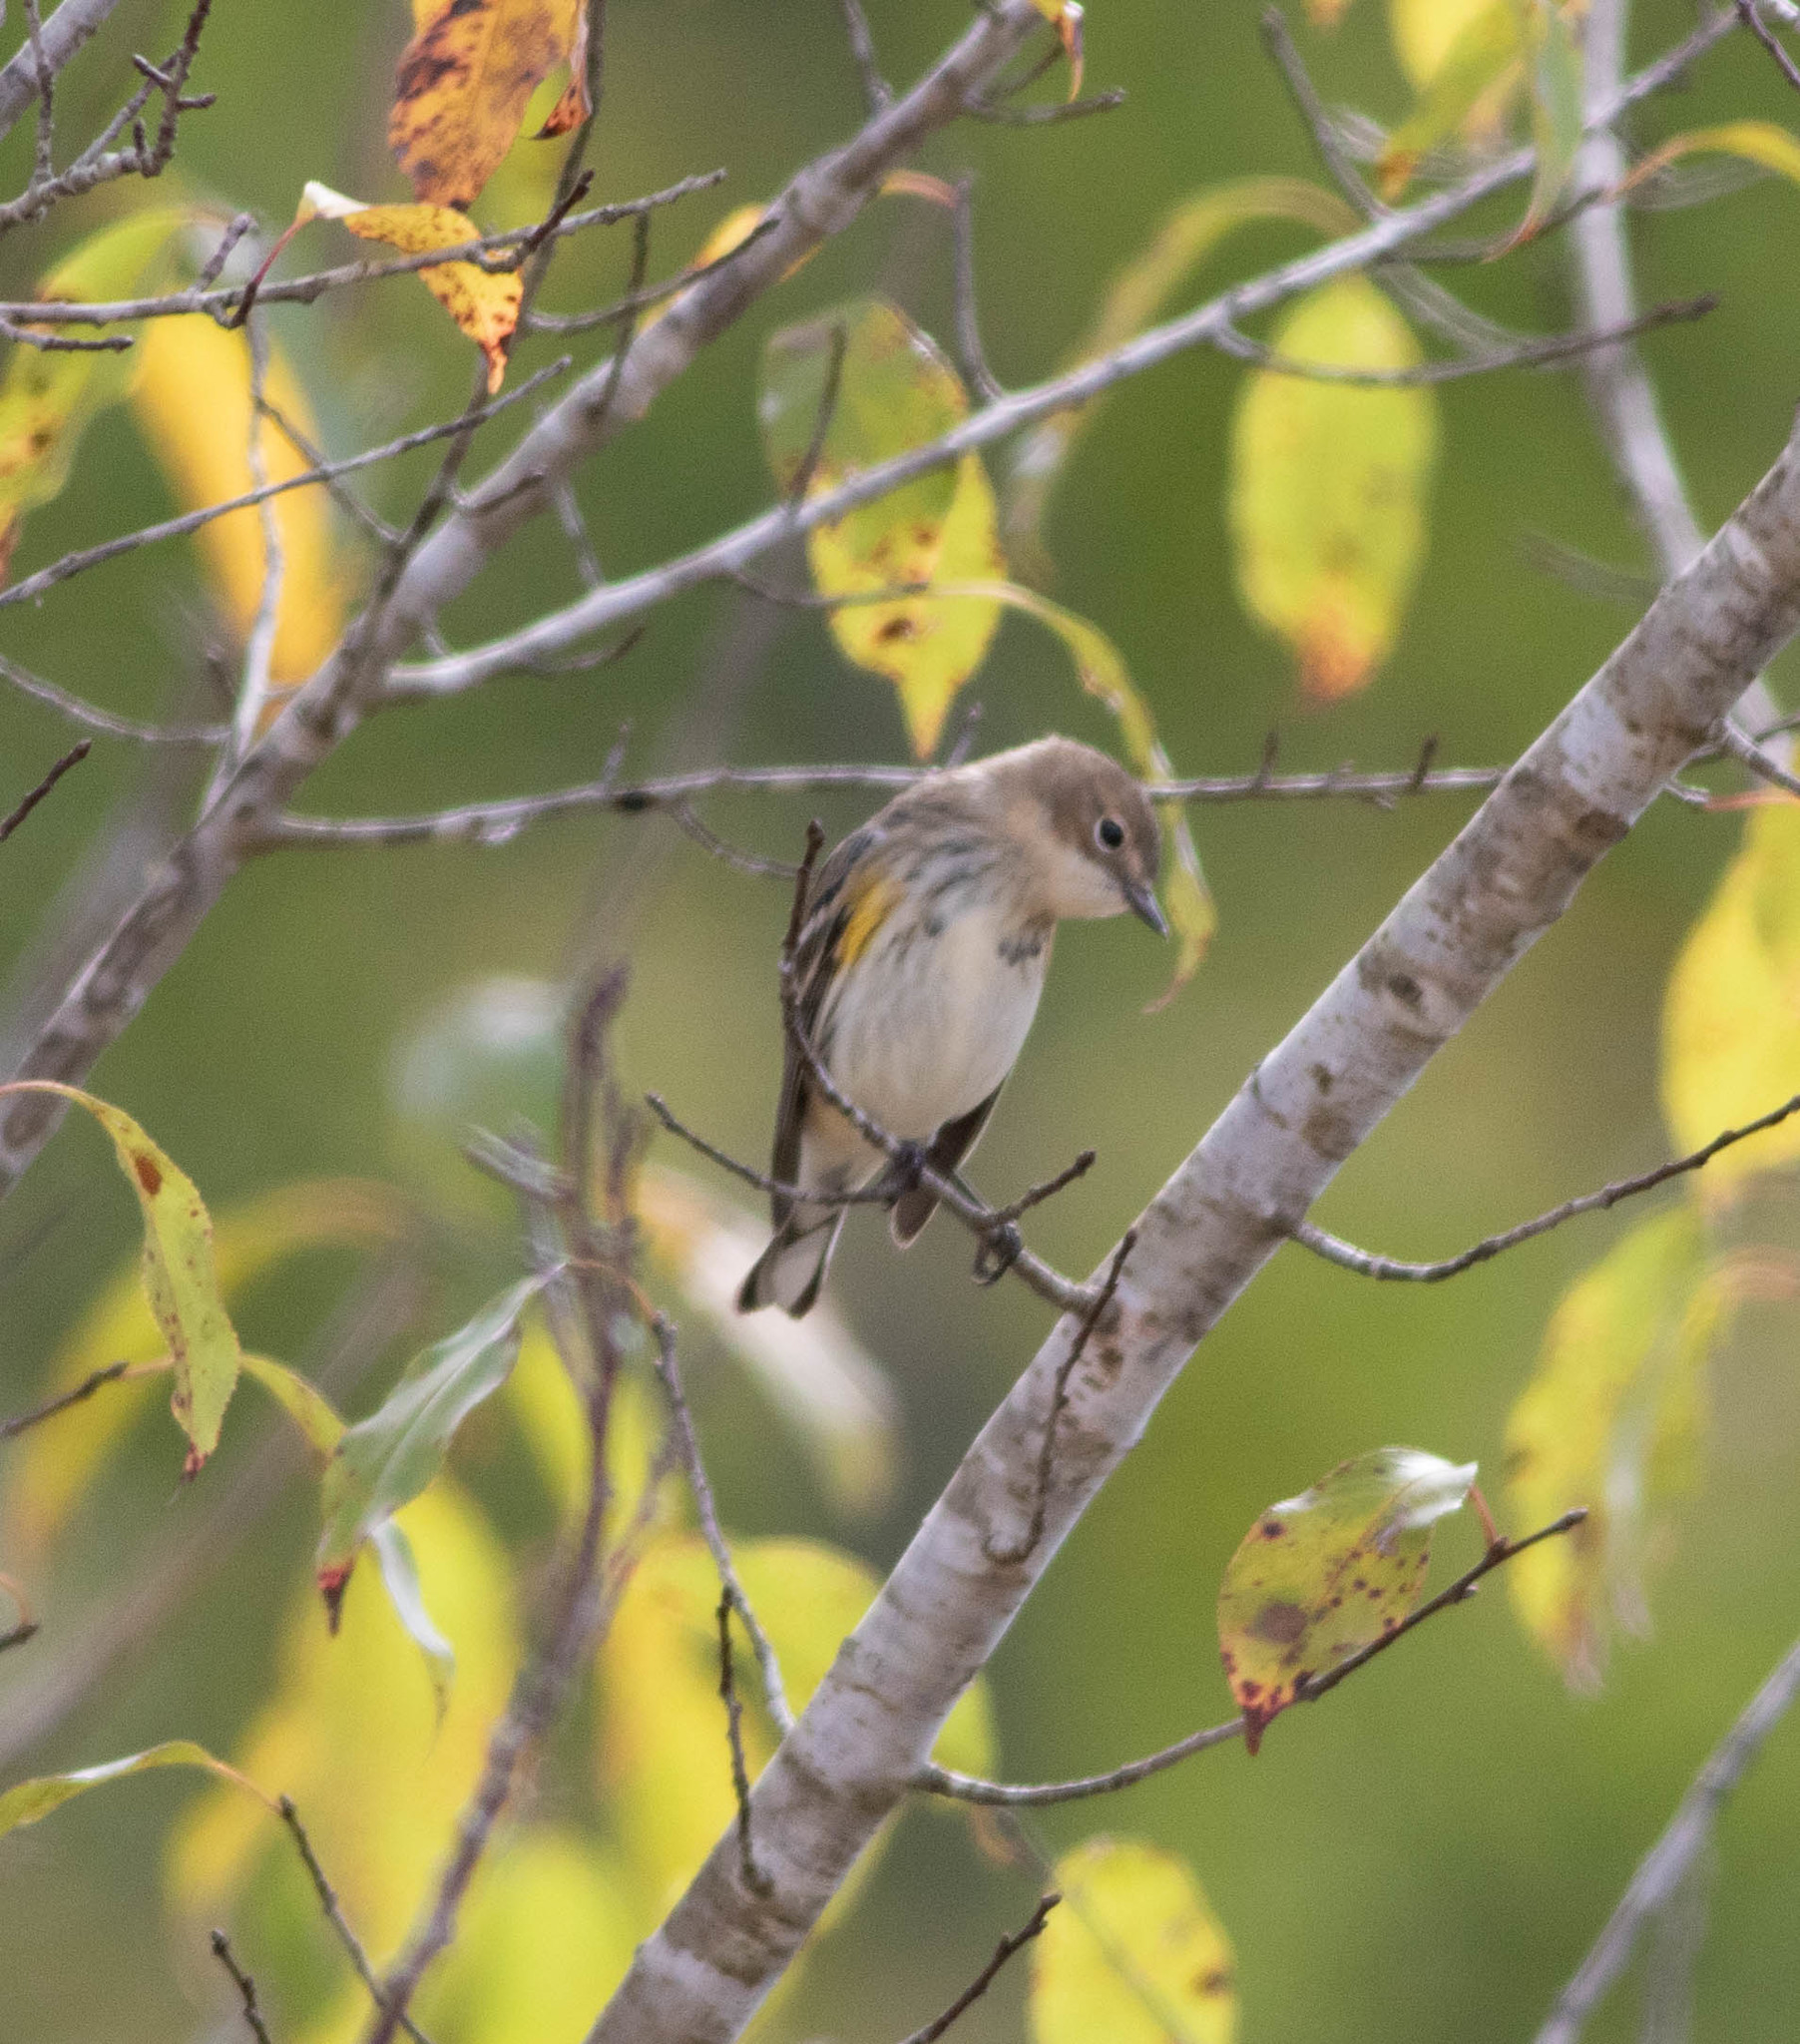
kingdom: Animalia
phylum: Chordata
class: Aves
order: Passeriformes
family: Parulidae
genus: Setophaga
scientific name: Setophaga coronata
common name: Myrtle warbler
